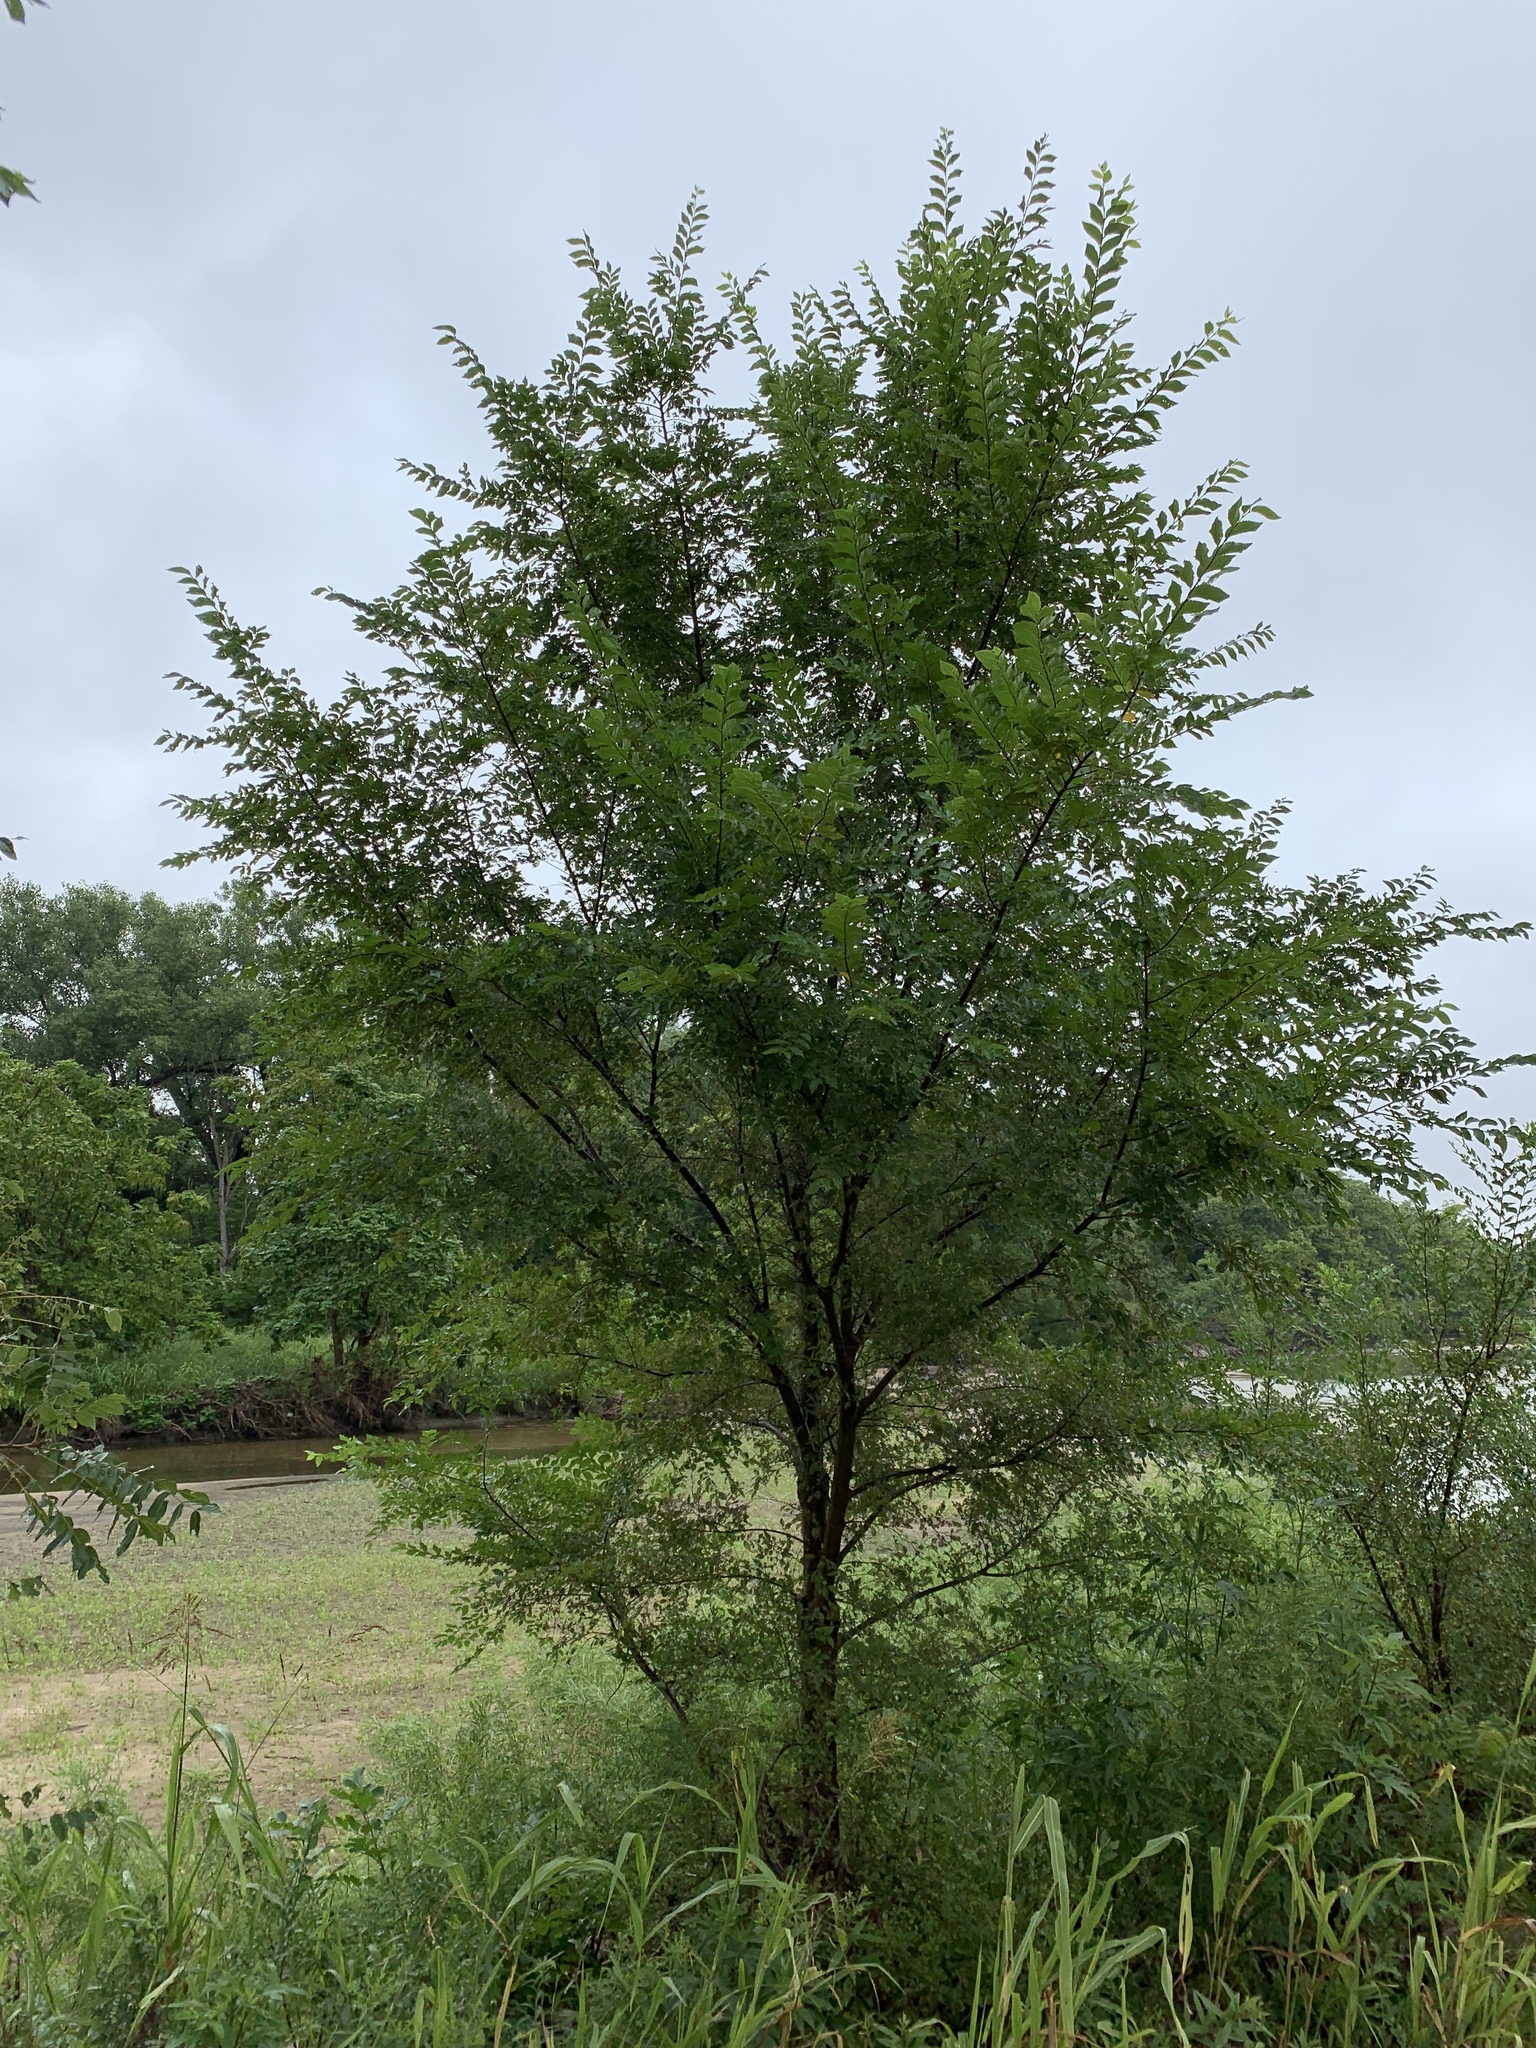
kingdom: Plantae
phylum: Tracheophyta
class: Magnoliopsida
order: Rosales
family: Ulmaceae
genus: Ulmus
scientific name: Ulmus pumila
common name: Siberian elm
